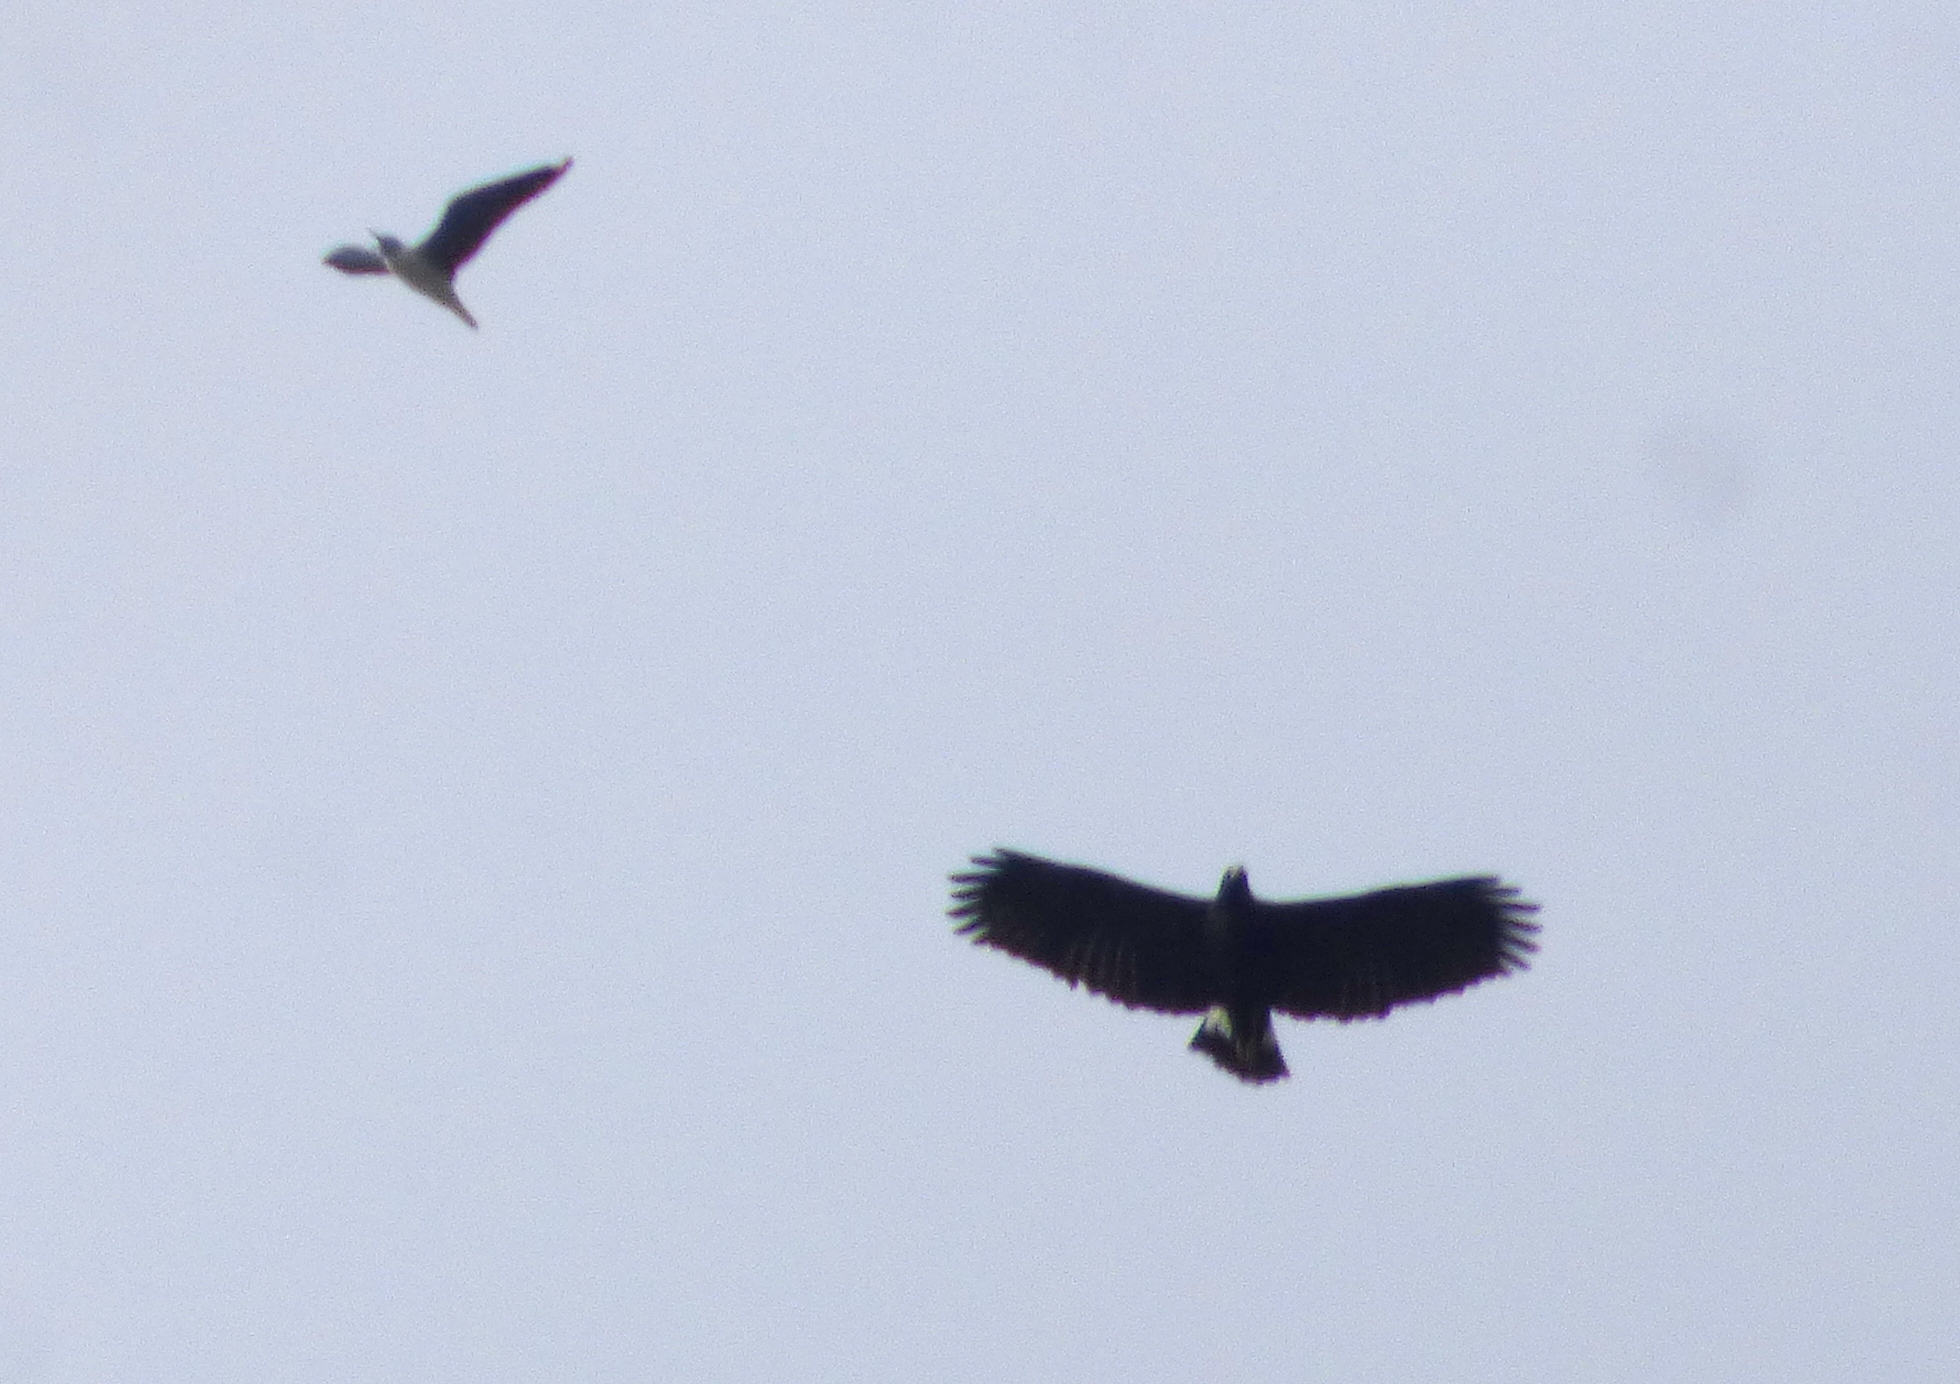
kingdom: Animalia
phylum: Chordata
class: Aves
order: Accipitriformes
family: Accipitridae
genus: Buteogallus
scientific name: Buteogallus urubitinga
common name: Great black hawk
